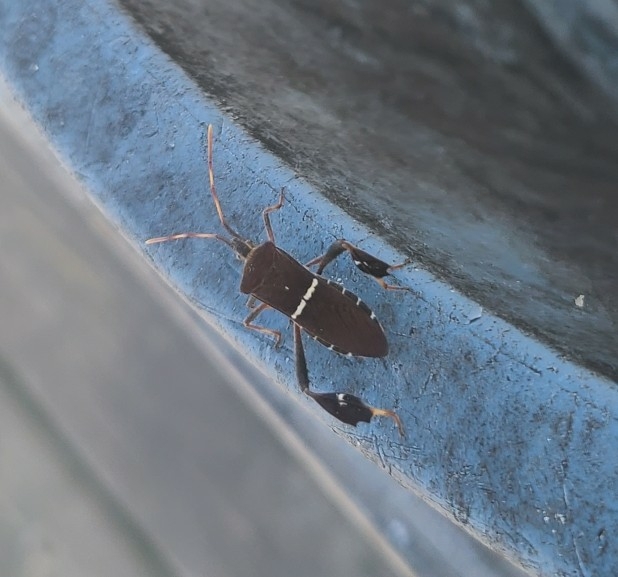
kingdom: Animalia
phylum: Arthropoda
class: Insecta
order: Hemiptera
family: Coreidae
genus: Leptoglossus
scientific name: Leptoglossus phyllopus
